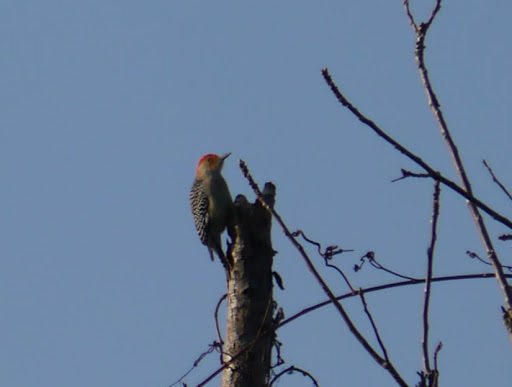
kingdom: Animalia
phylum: Chordata
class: Aves
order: Piciformes
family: Picidae
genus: Melanerpes
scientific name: Melanerpes carolinus
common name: Red-bellied woodpecker
